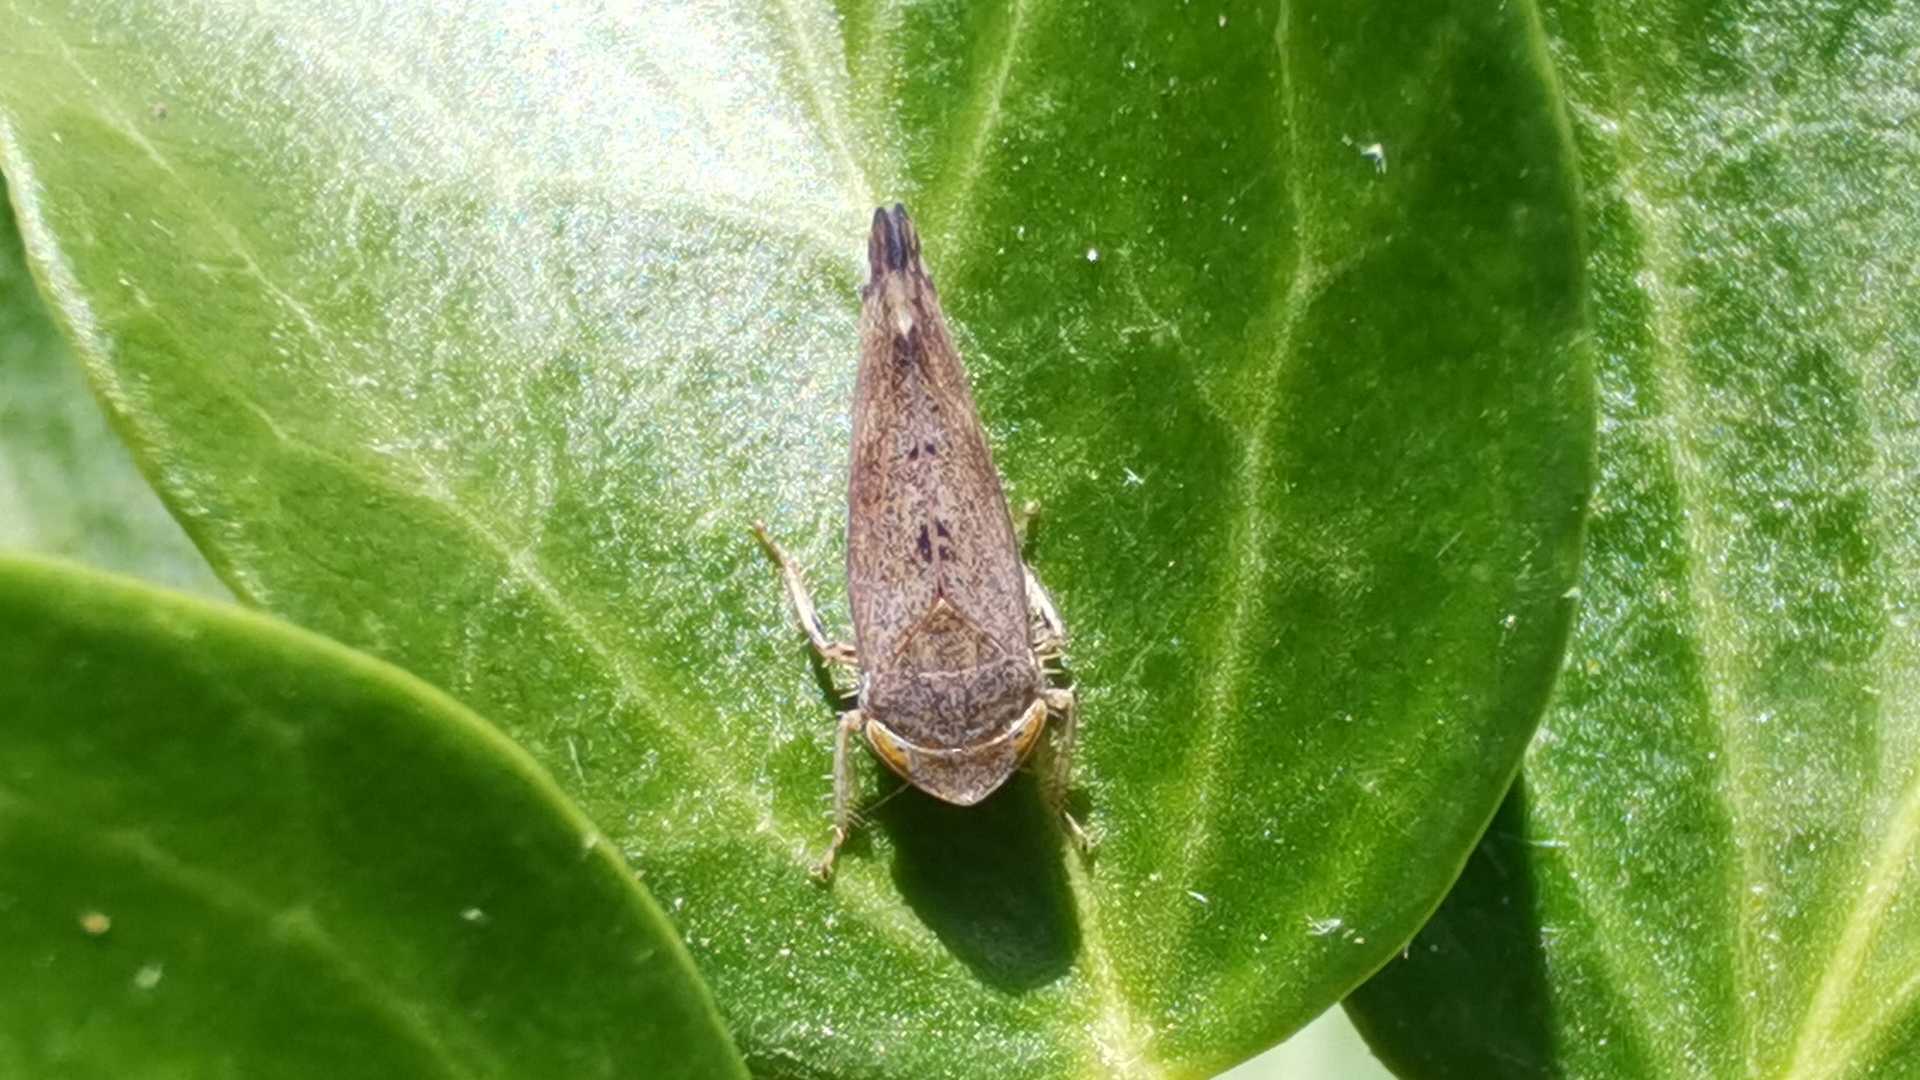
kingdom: Animalia
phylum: Arthropoda
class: Insecta
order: Hemiptera
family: Cicadellidae
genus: Fieberiella
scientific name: Fieberiella
